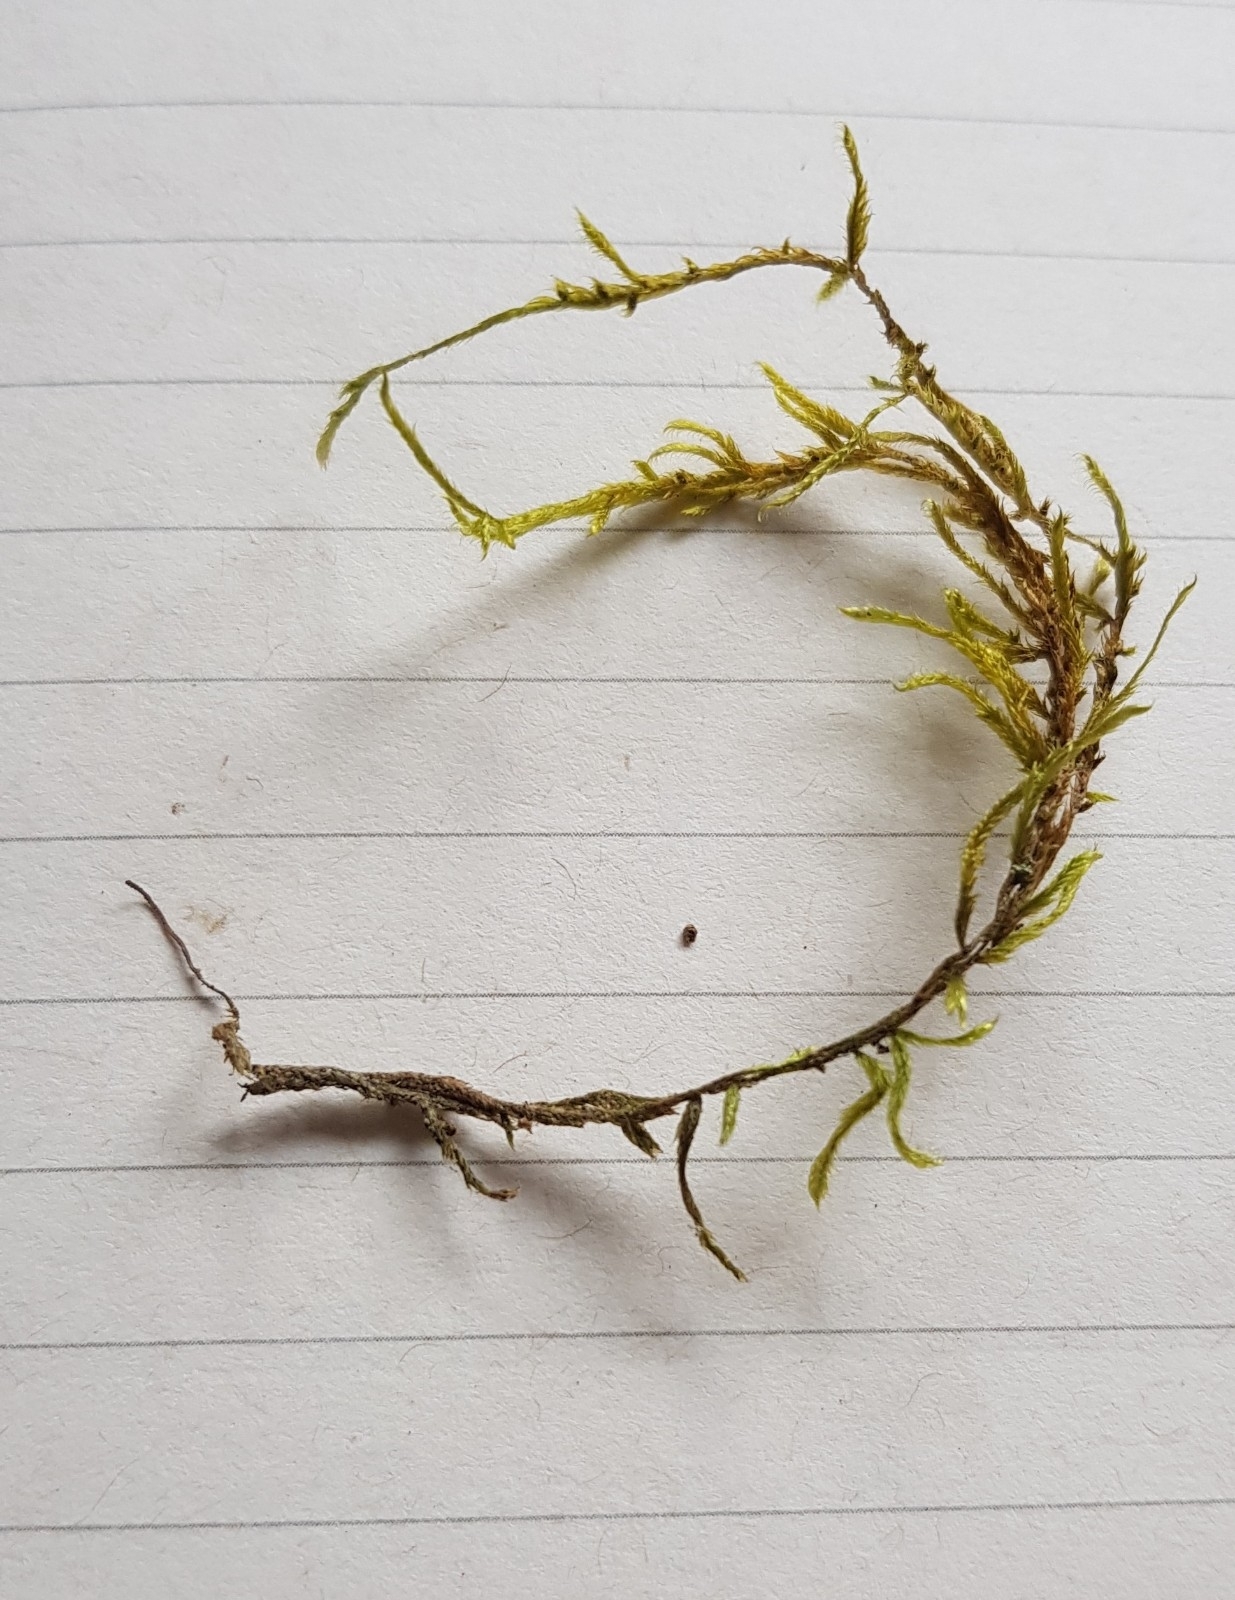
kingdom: Plantae
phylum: Bryophyta
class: Bryopsida
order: Hypnales
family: Hypnaceae
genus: Hypnum
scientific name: Hypnum cupressiforme
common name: Cypress-leaved plait-moss
